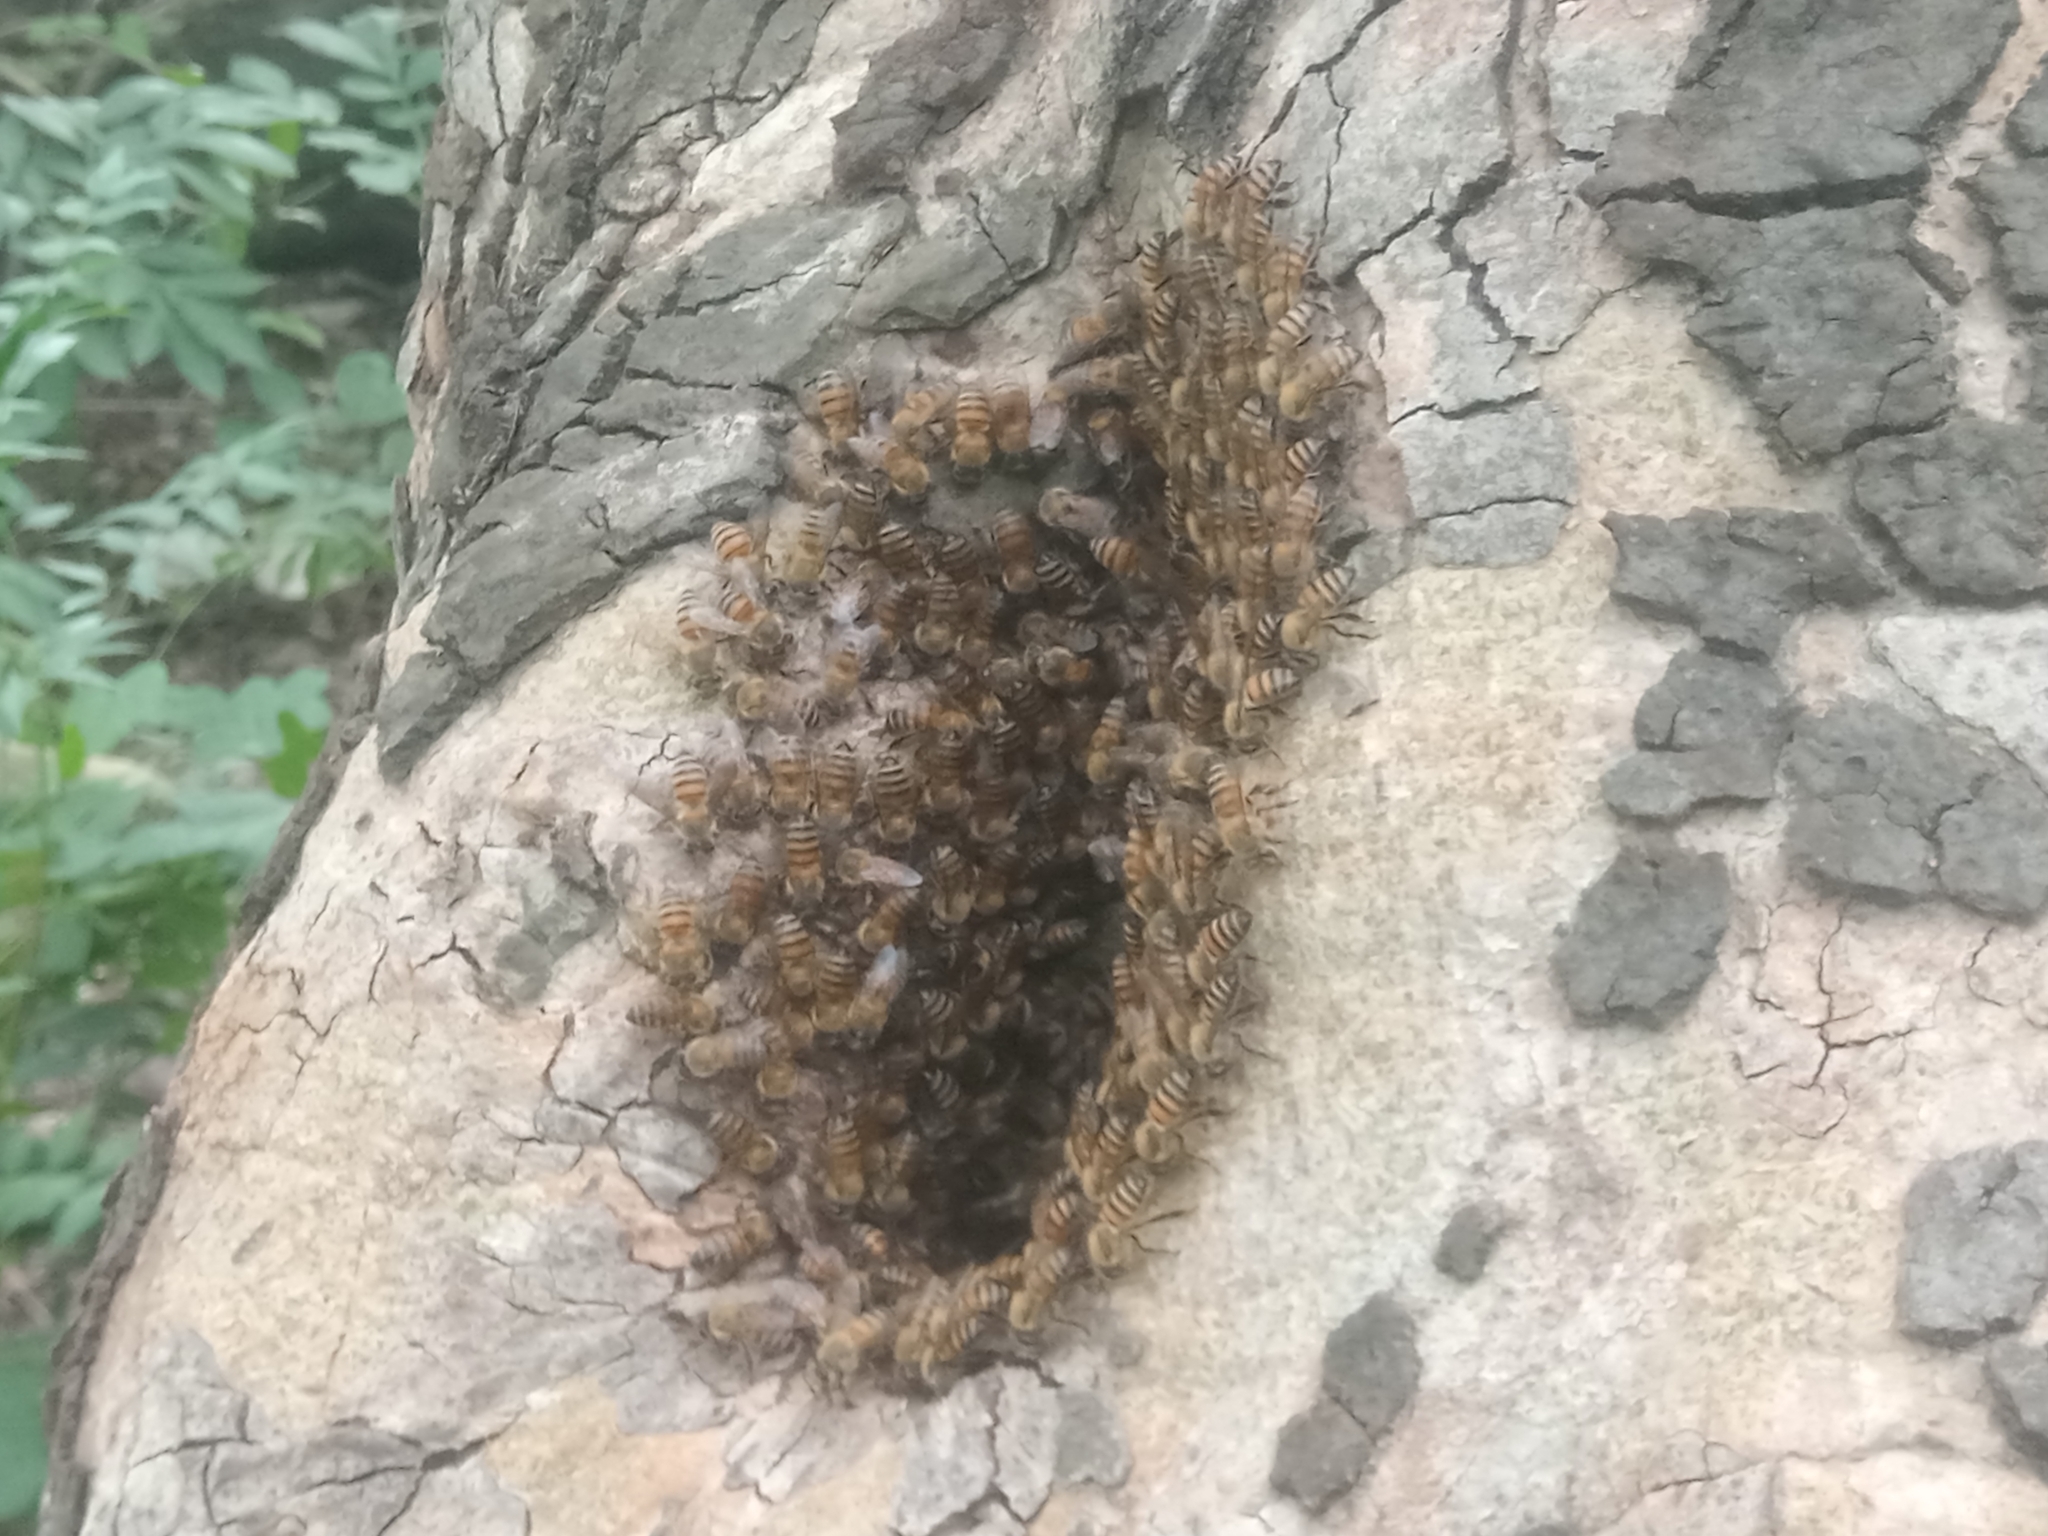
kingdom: Animalia
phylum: Arthropoda
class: Insecta
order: Hymenoptera
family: Apidae
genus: Apis
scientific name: Apis mellifera
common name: Honey bee
